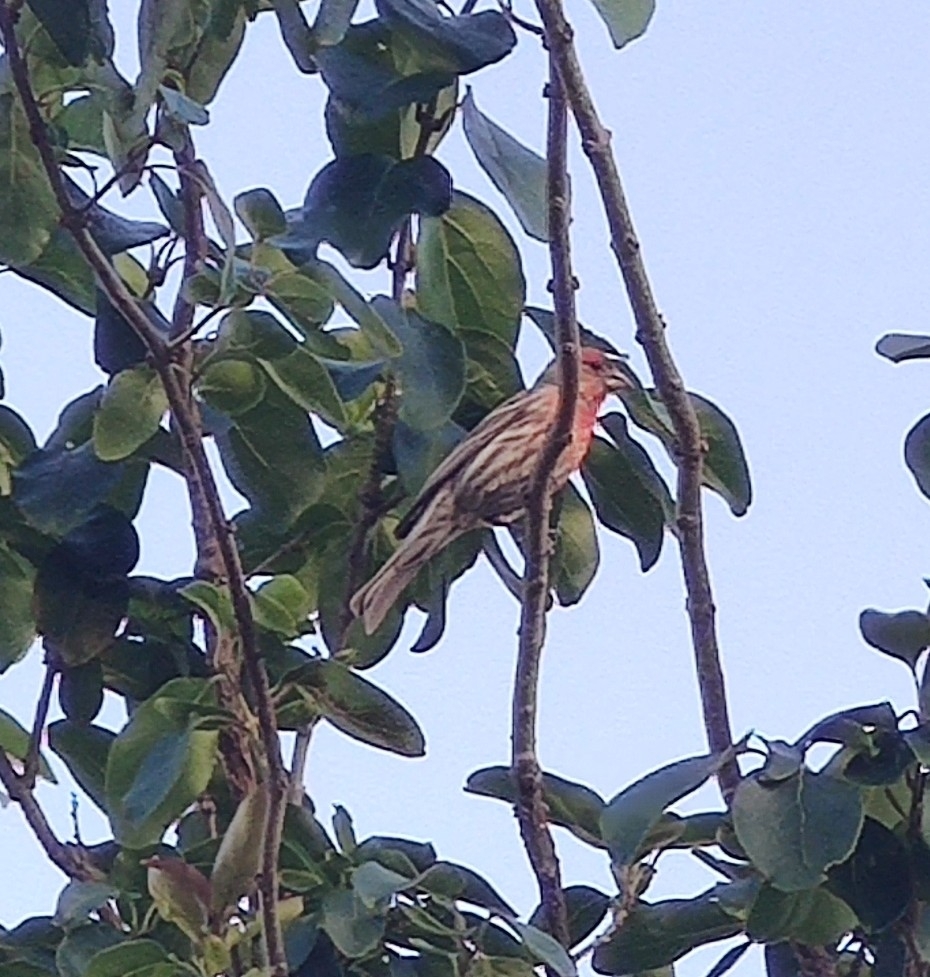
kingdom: Animalia
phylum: Chordata
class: Aves
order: Passeriformes
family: Fringillidae
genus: Haemorhous
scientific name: Haemorhous mexicanus
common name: House finch
